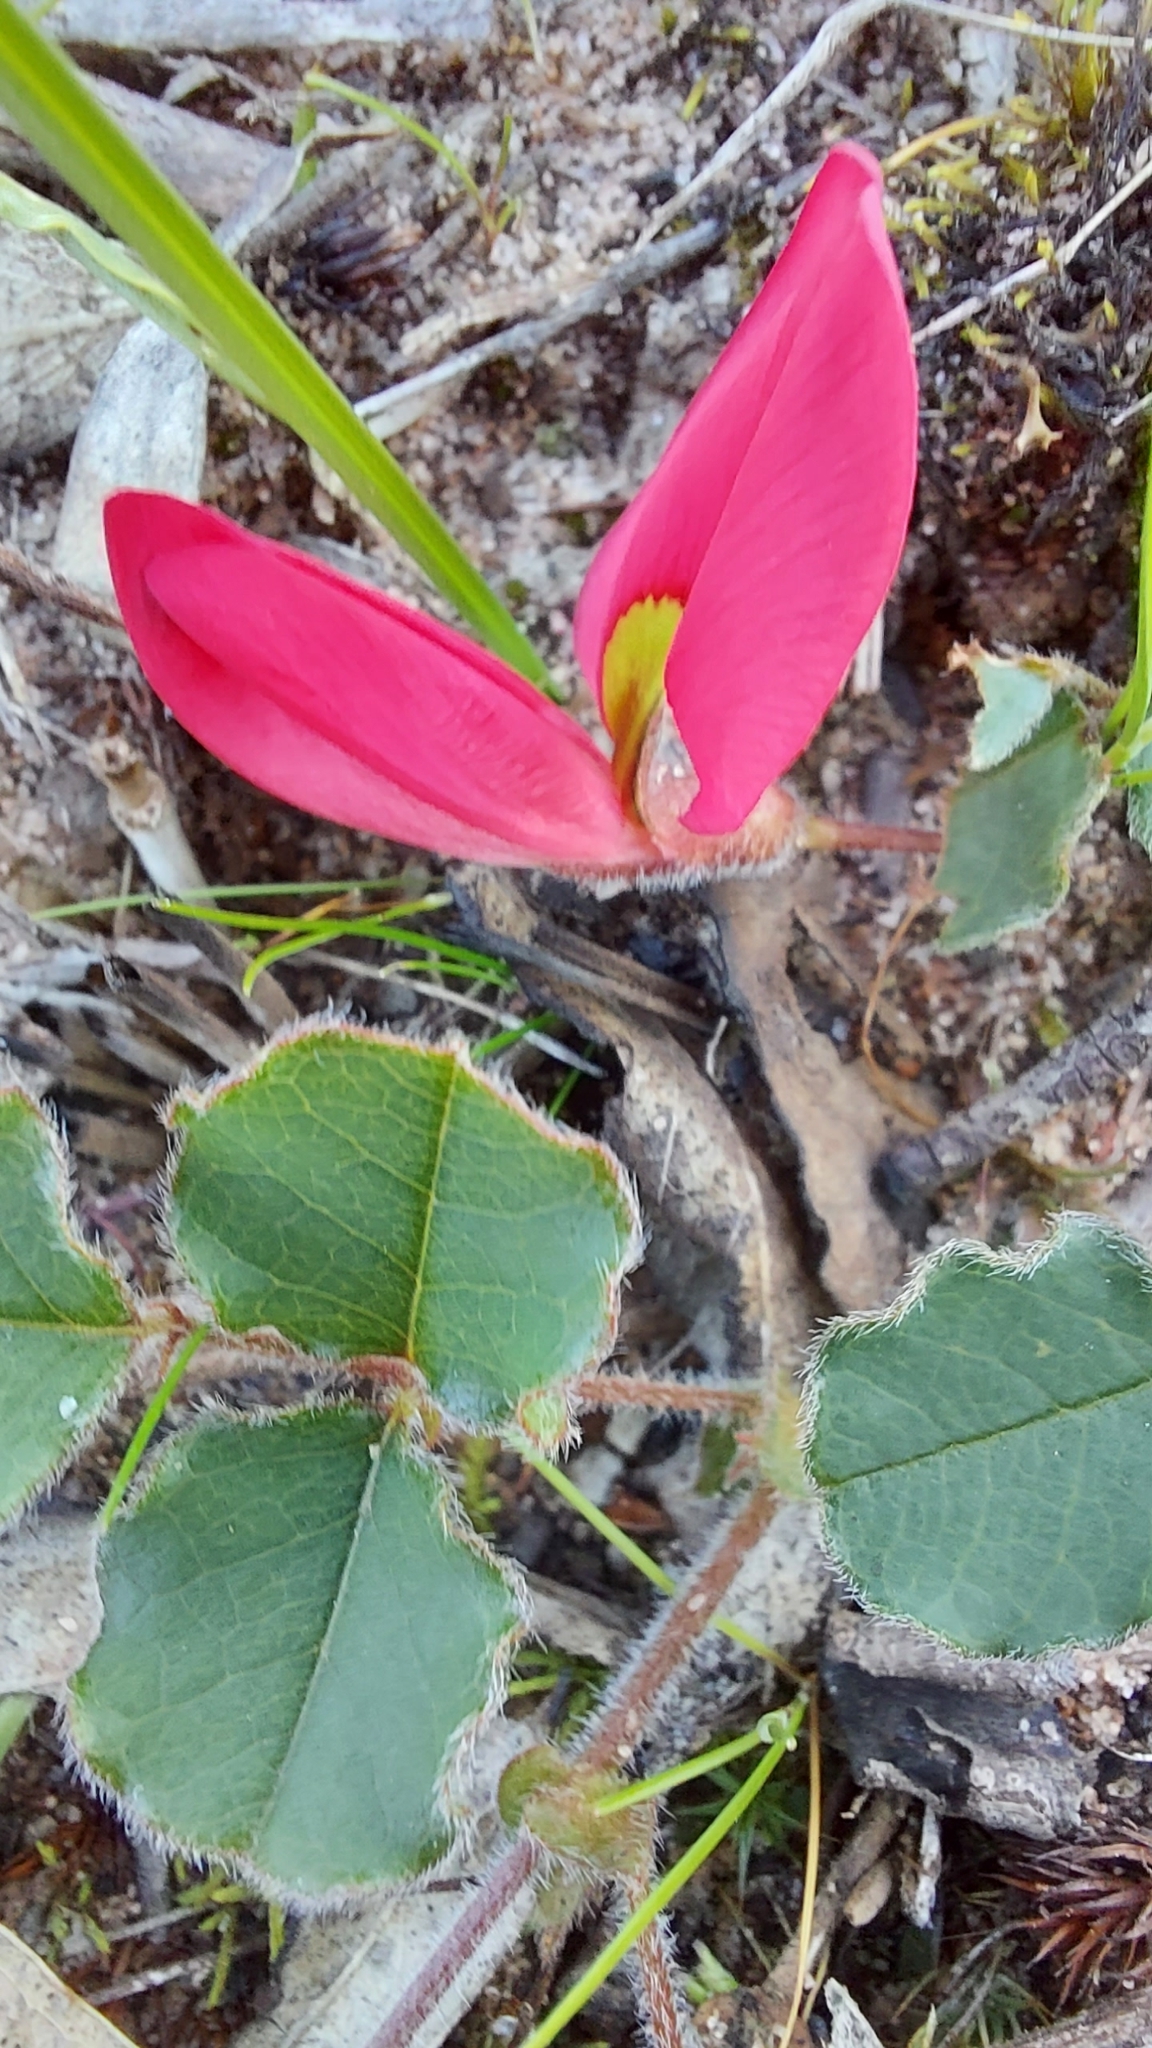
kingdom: Plantae
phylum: Tracheophyta
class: Magnoliopsida
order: Fabales
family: Fabaceae
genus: Kennedia
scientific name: Kennedia prostrata
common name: Running-postman
